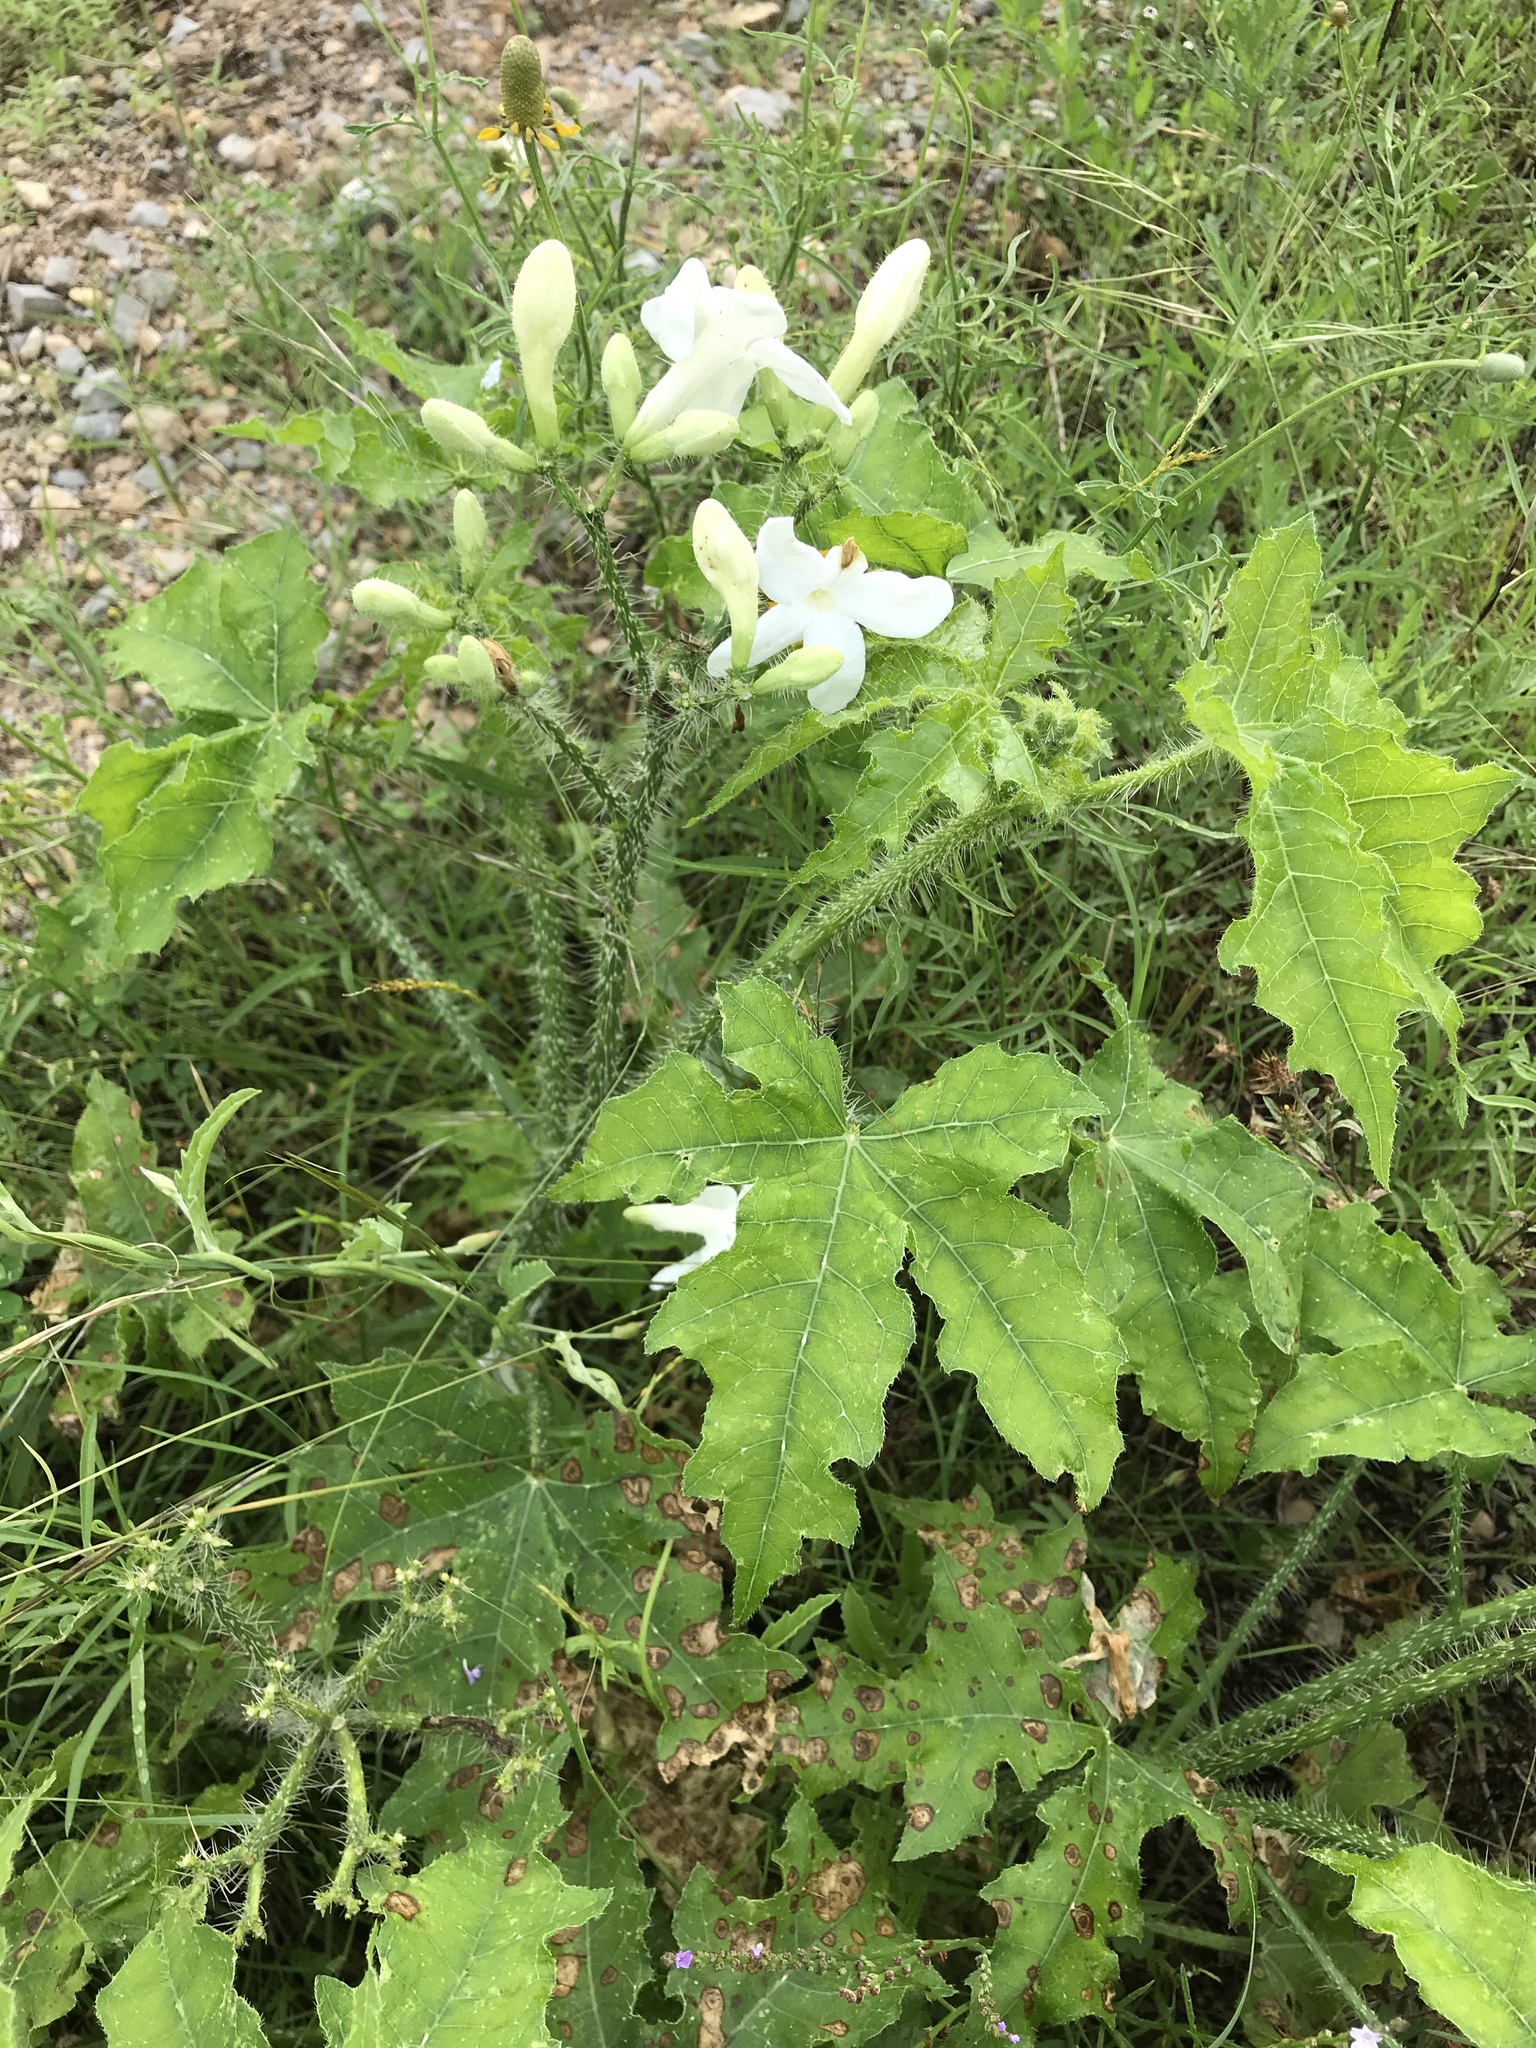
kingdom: Plantae
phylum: Tracheophyta
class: Magnoliopsida
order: Malpighiales
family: Euphorbiaceae
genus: Cnidoscolus
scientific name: Cnidoscolus texanus
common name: Texas bull-nettle
